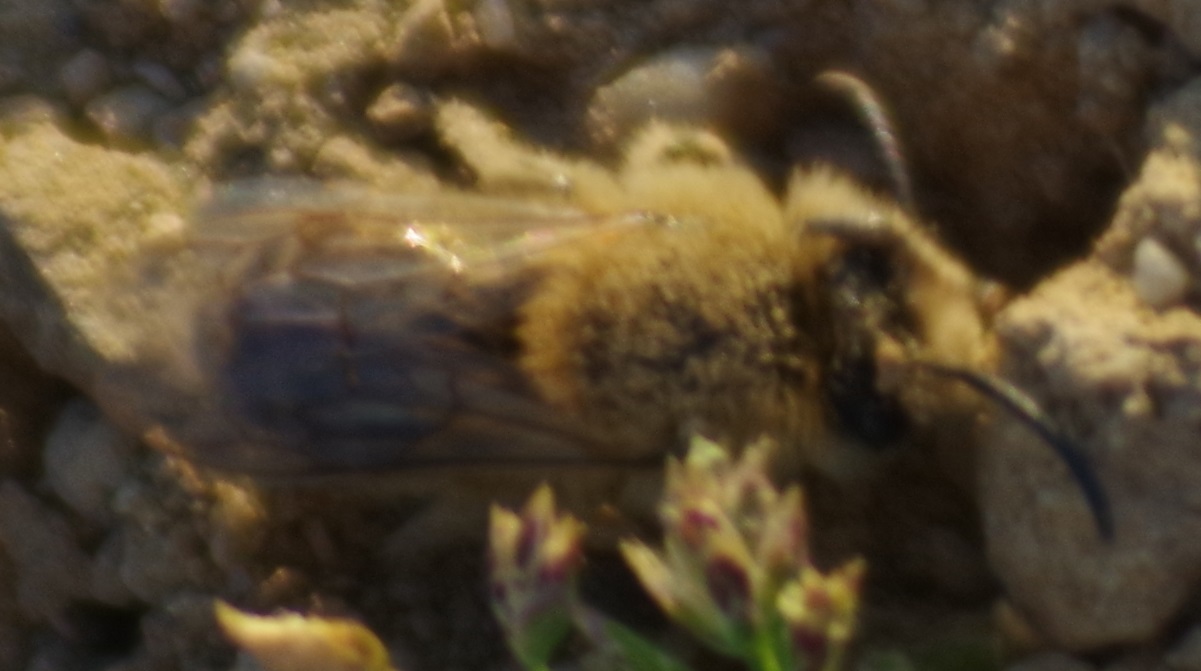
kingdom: Animalia
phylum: Arthropoda
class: Insecta
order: Hymenoptera
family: Colletidae
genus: Colletes
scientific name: Colletes cunicularius
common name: Early colletes
